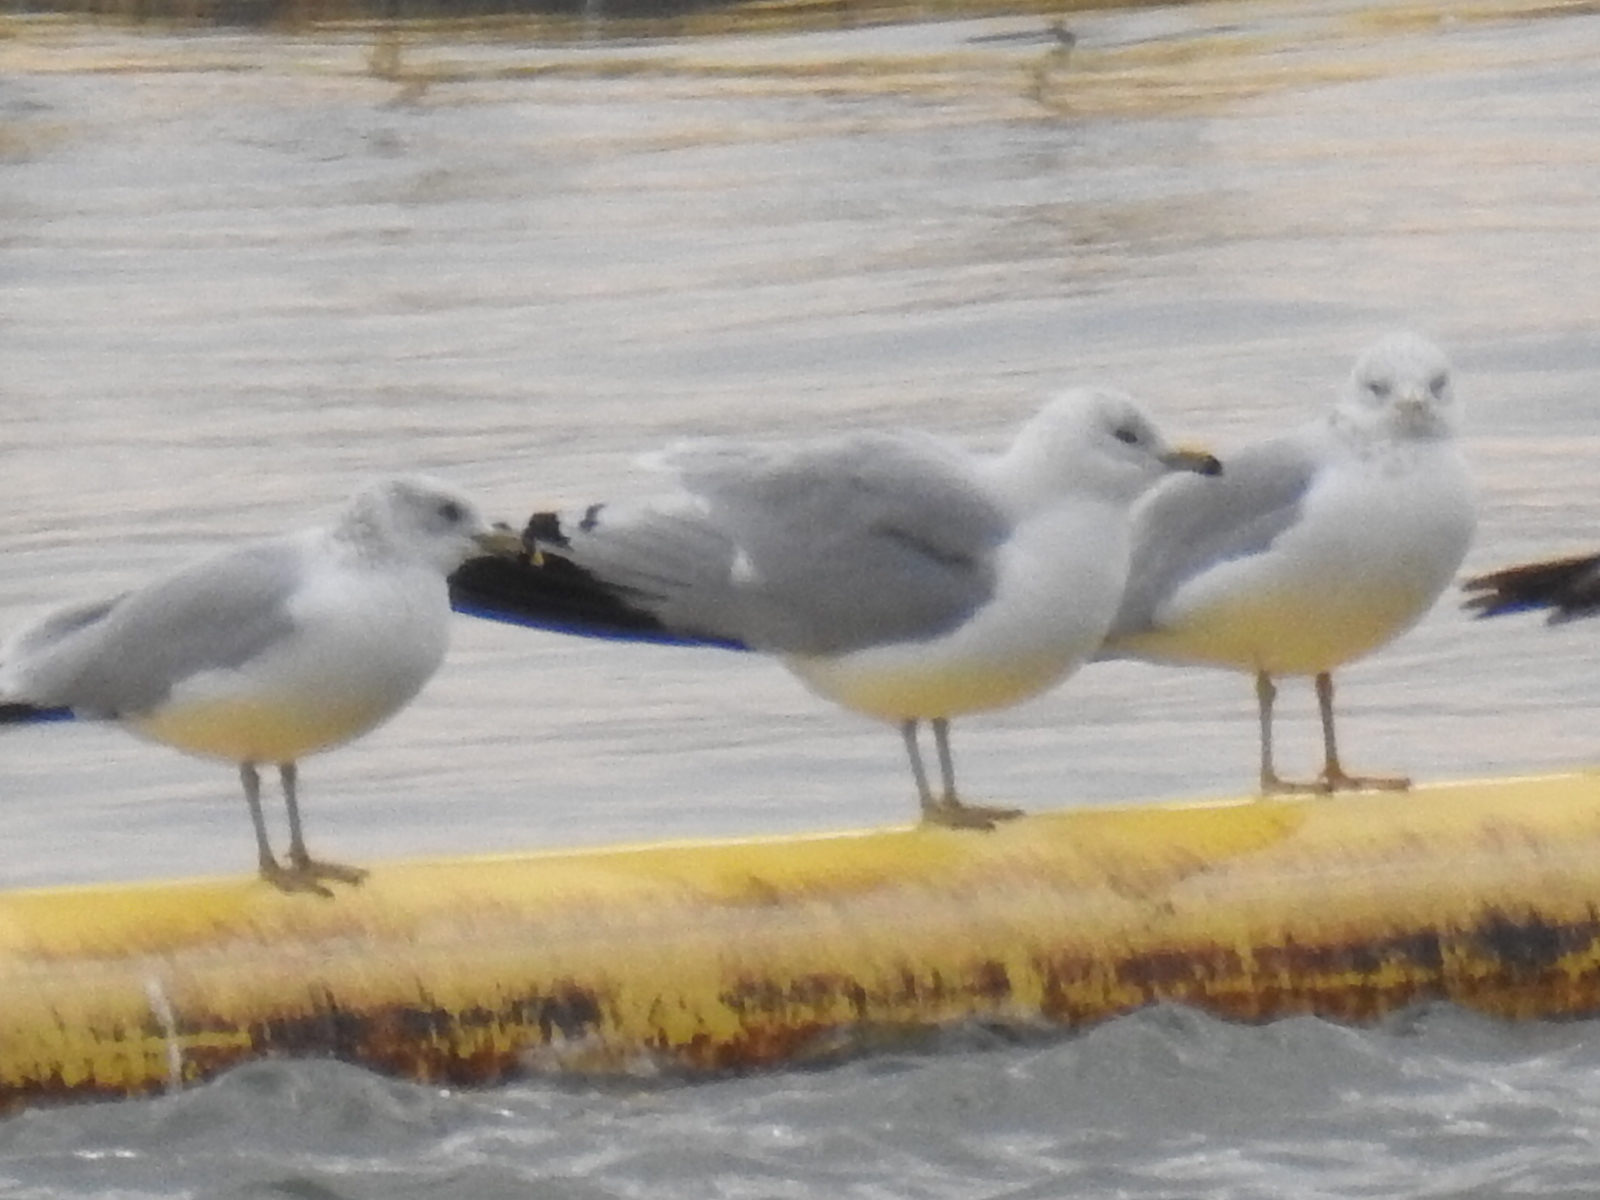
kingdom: Animalia
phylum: Chordata
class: Aves
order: Charadriiformes
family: Laridae
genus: Larus
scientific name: Larus delawarensis
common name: Ring-billed gull
